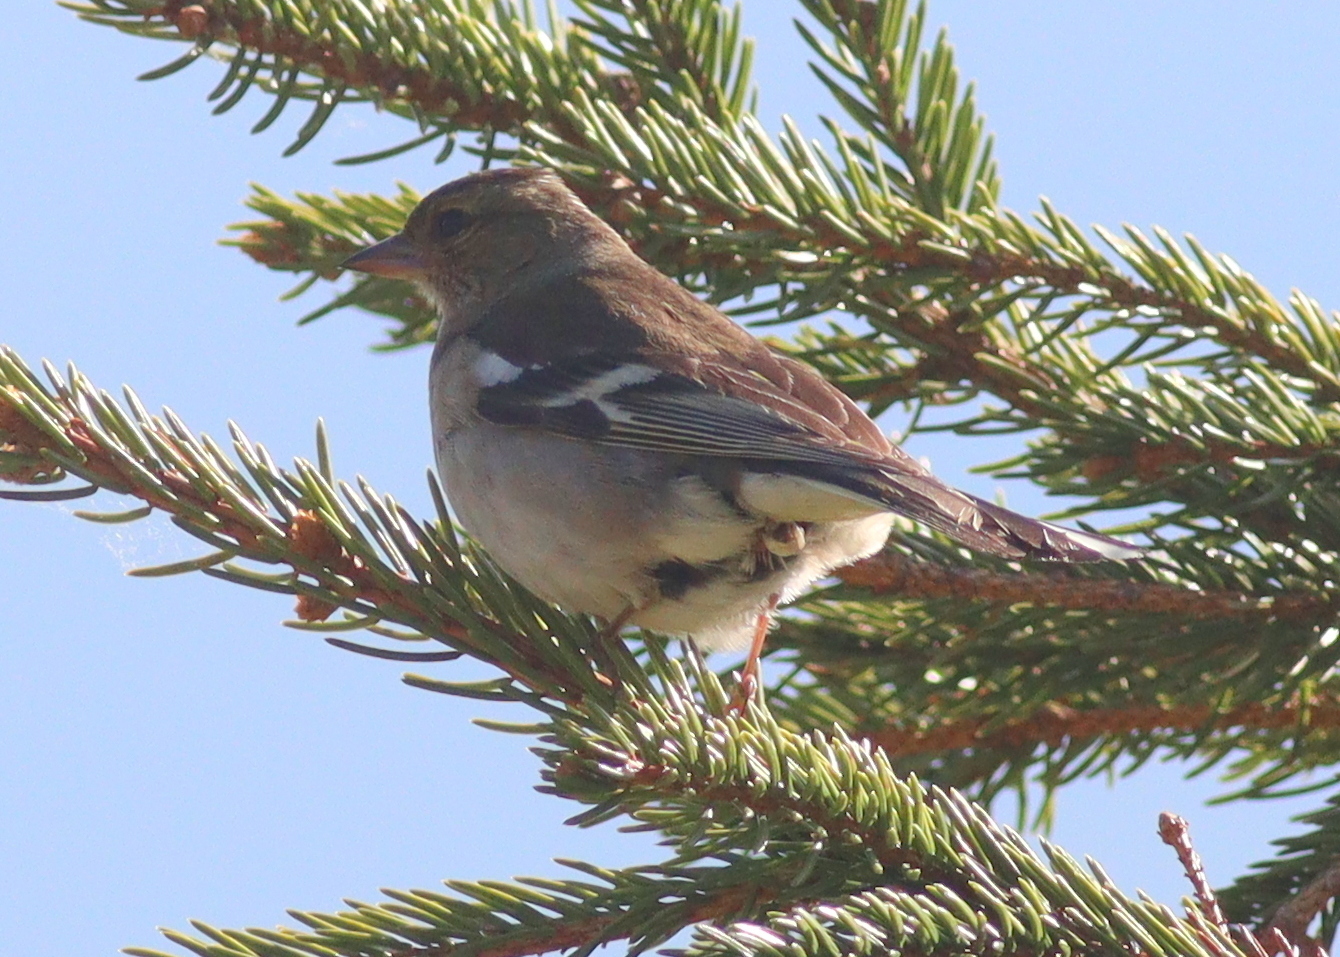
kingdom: Animalia
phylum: Chordata
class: Aves
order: Passeriformes
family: Fringillidae
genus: Fringilla
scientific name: Fringilla coelebs
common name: Common chaffinch
